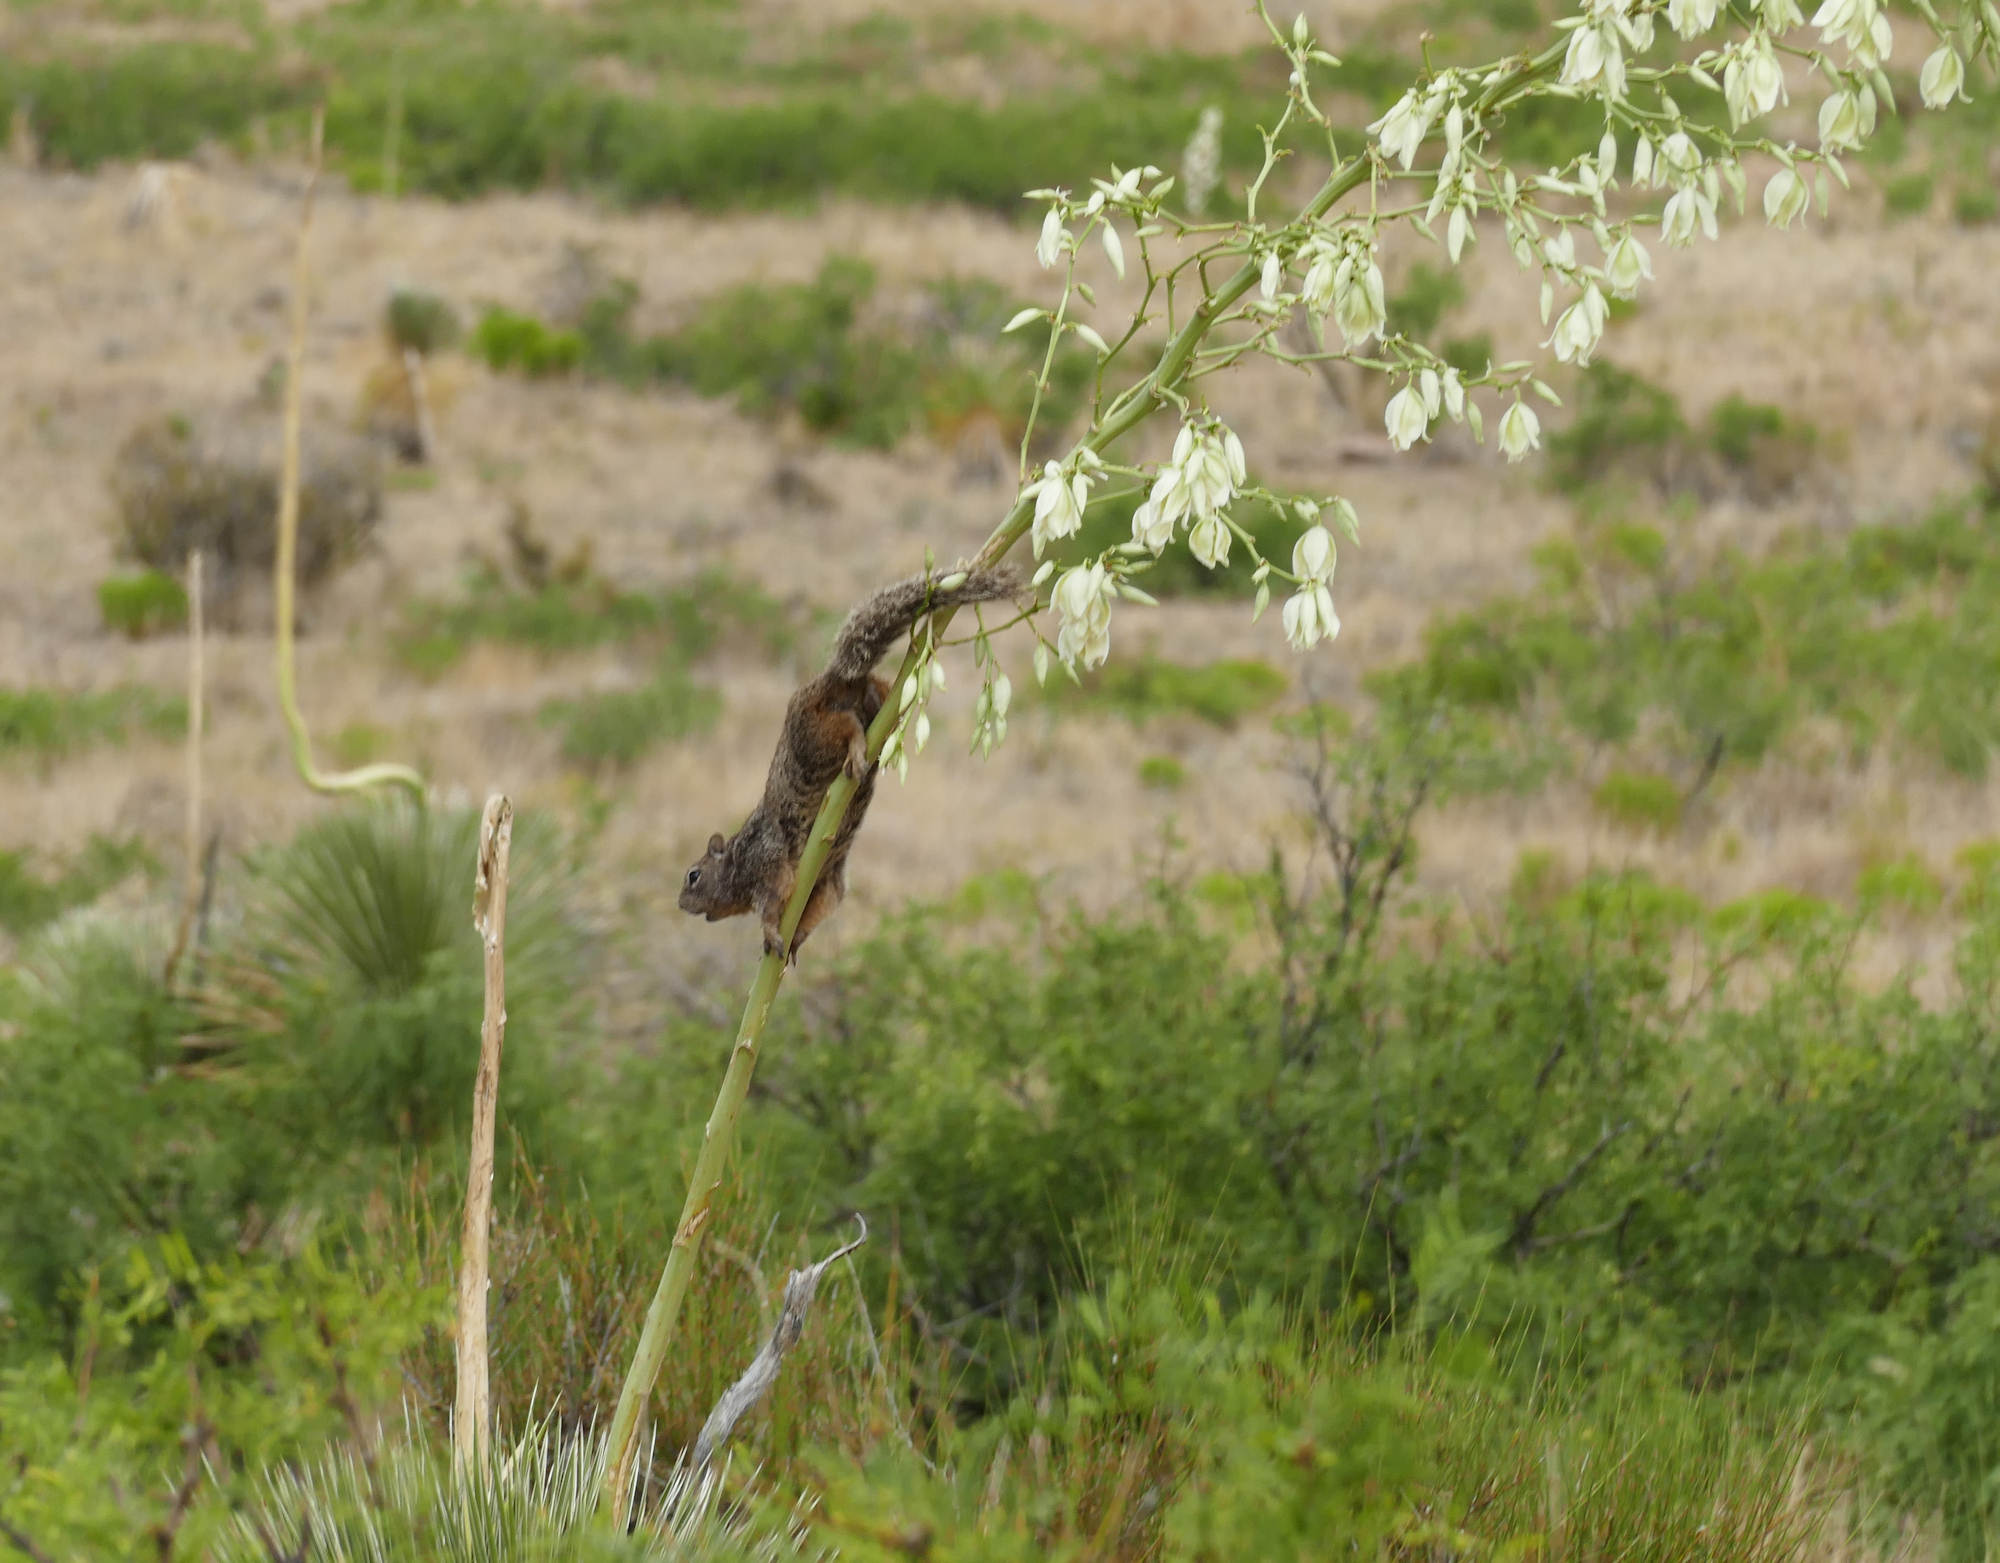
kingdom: Animalia
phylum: Chordata
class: Mammalia
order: Rodentia
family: Sciuridae
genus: Otospermophilus
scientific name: Otospermophilus variegatus
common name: Rock squirrel
